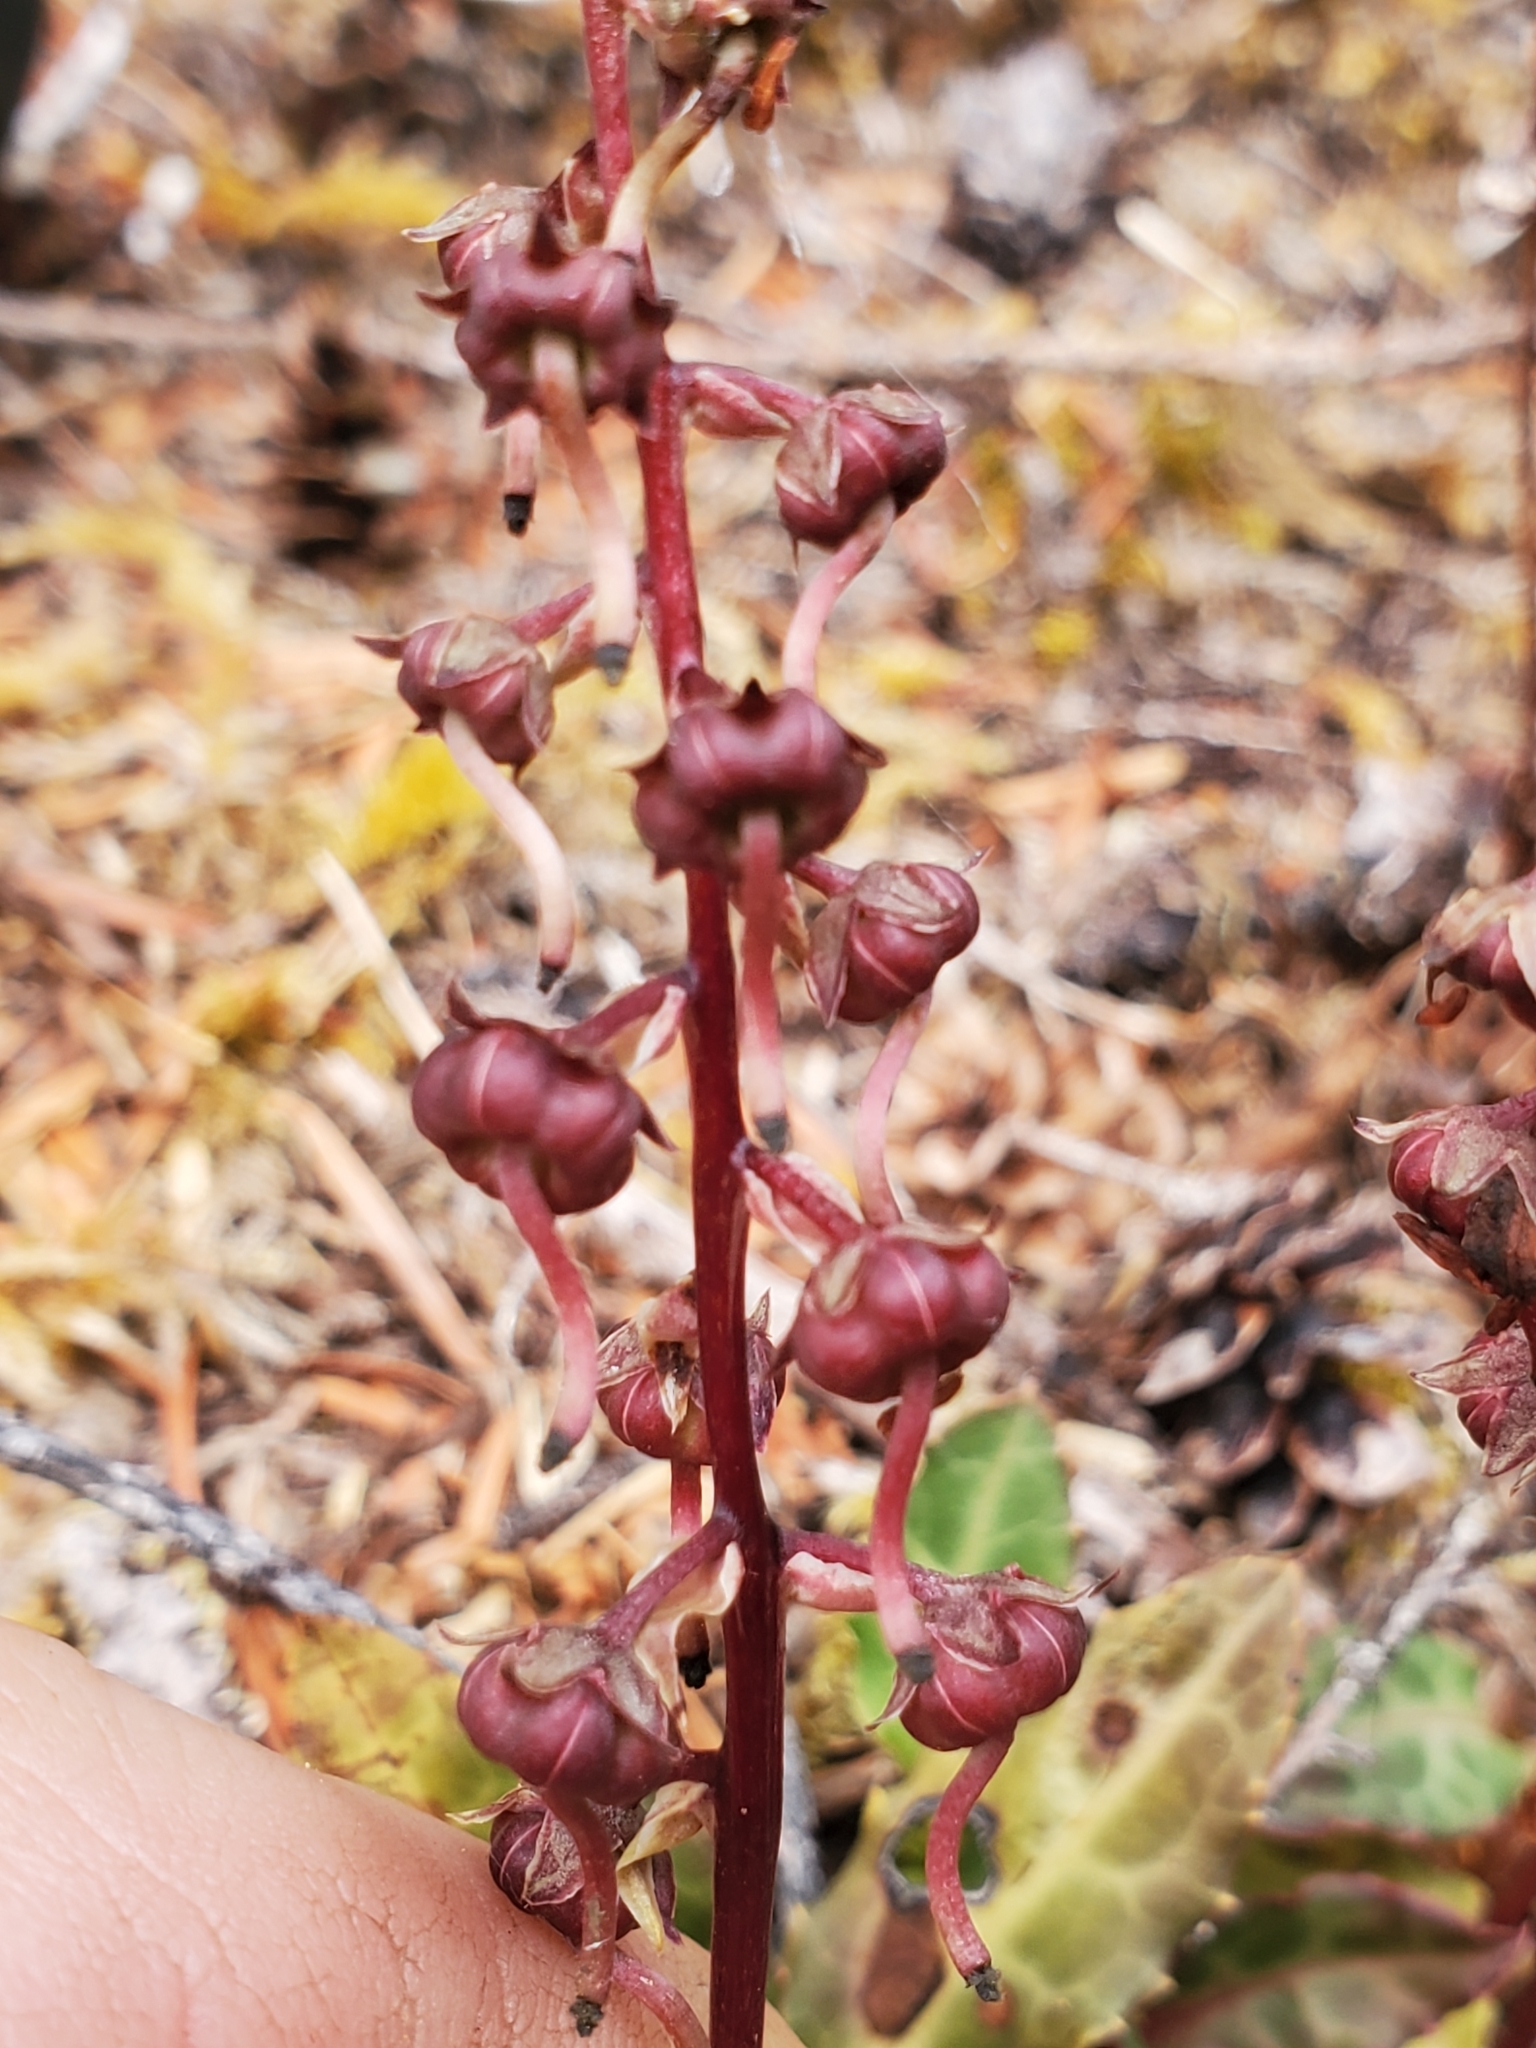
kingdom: Plantae
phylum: Tracheophyta
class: Magnoliopsida
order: Ericales
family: Ericaceae
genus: Pyrola
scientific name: Pyrola picta
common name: White-vein wintergreen
